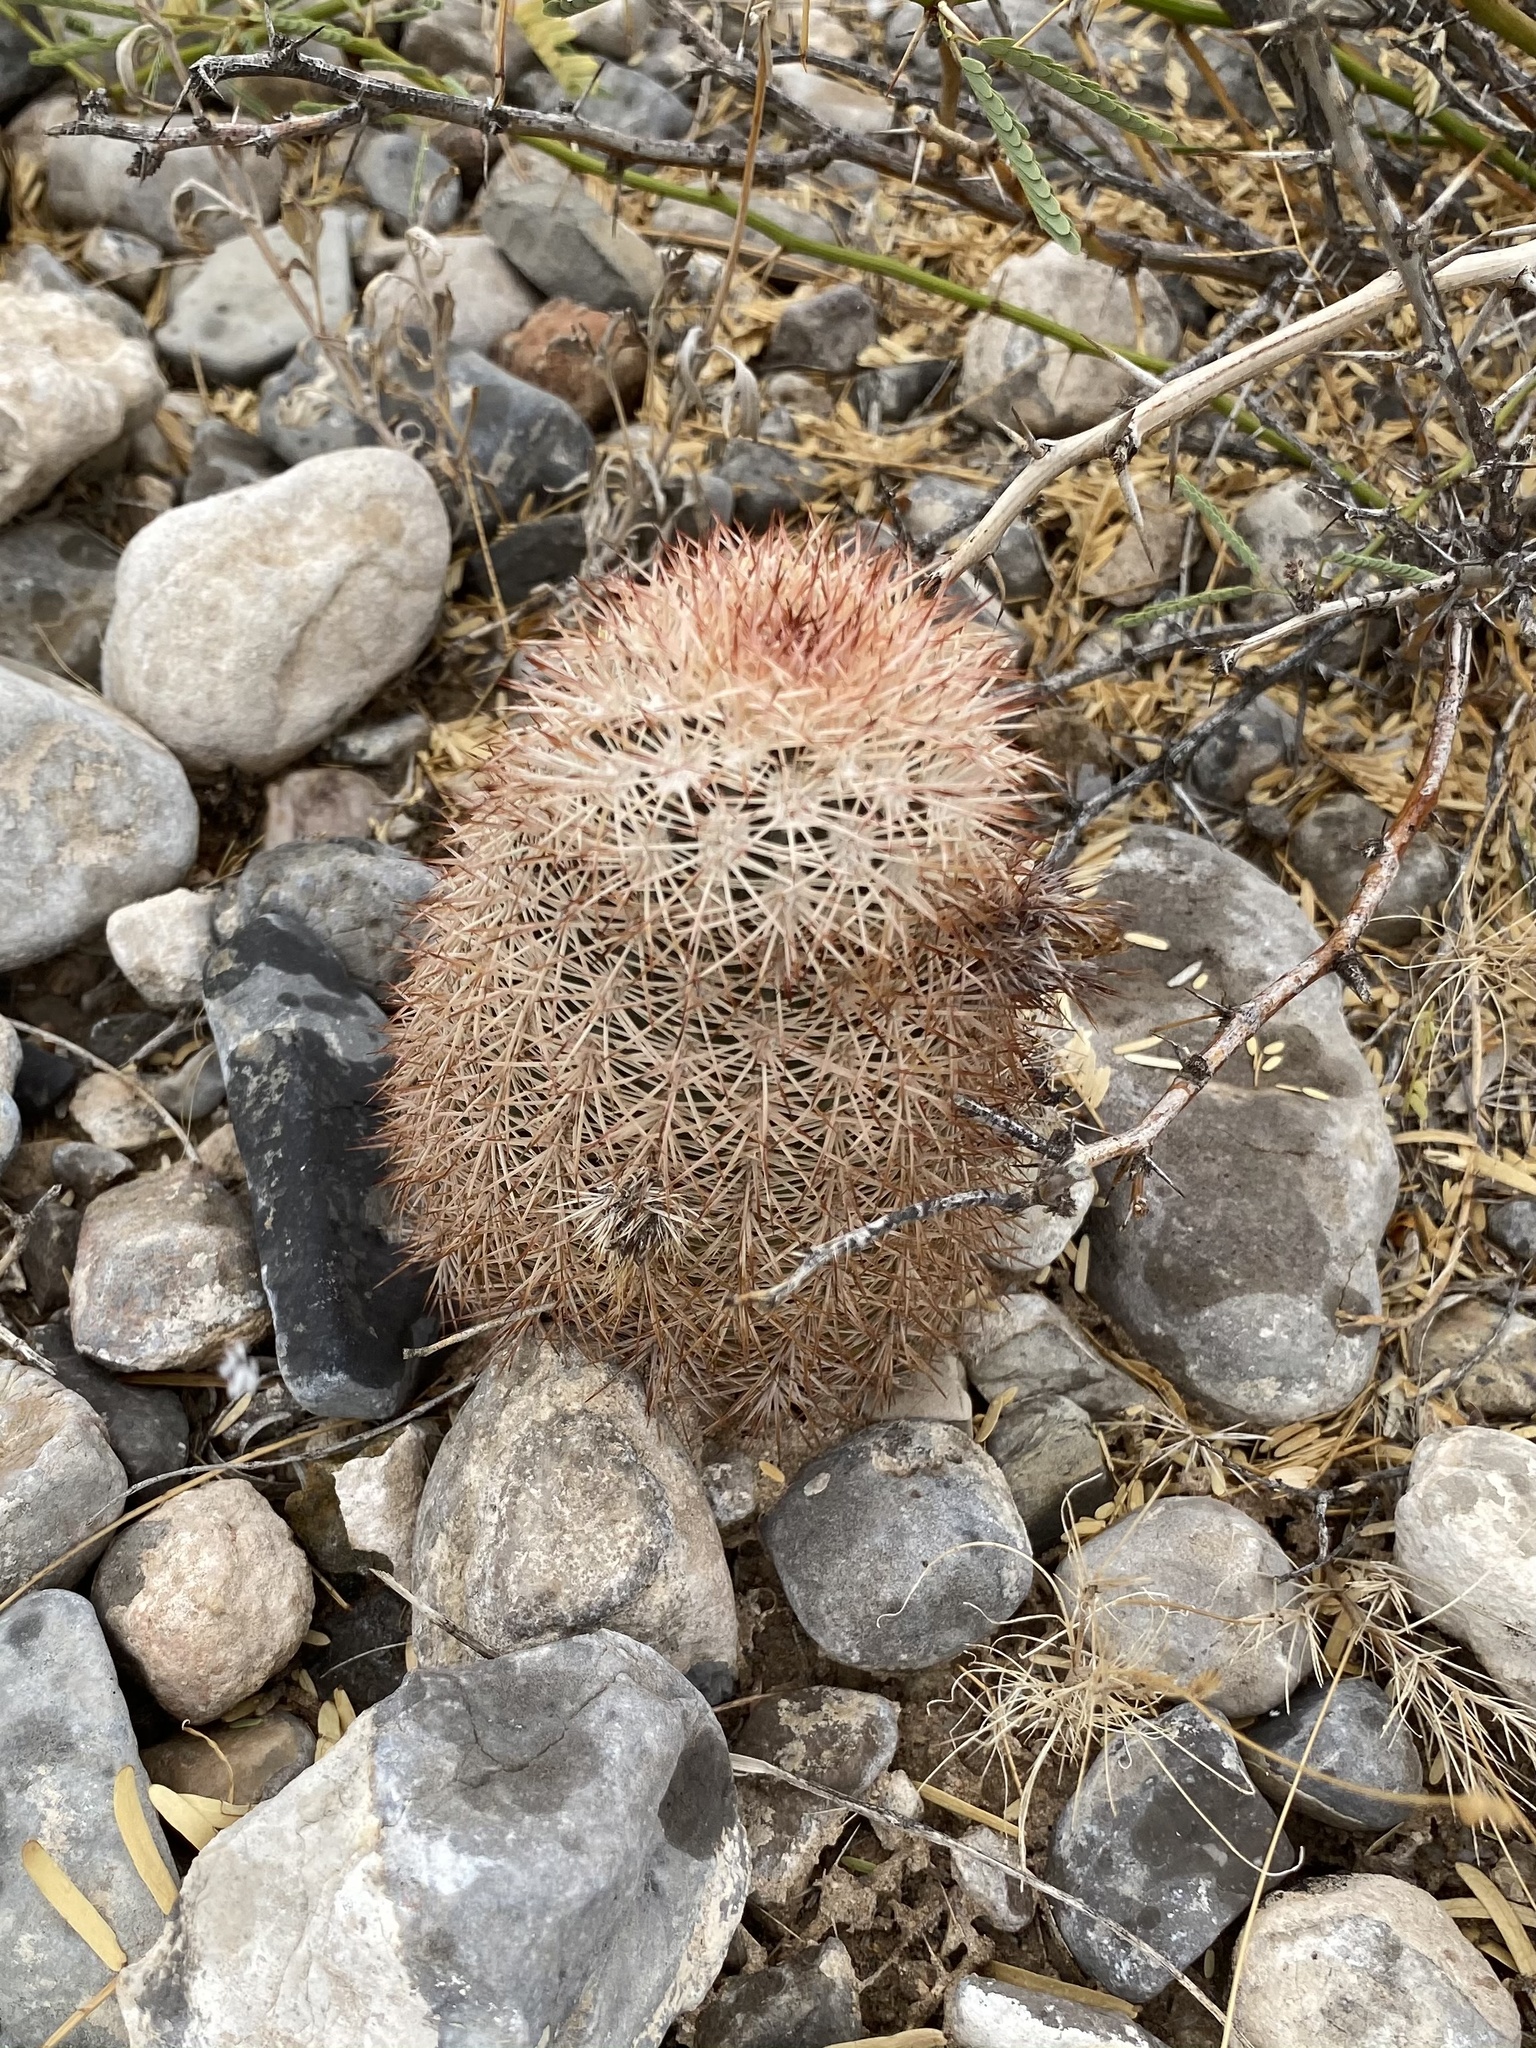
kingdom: Plantae
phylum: Tracheophyta
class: Magnoliopsida
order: Caryophyllales
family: Cactaceae
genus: Echinocereus
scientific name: Echinocereus dasyacanthus
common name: Spiny hedgehog cactus
